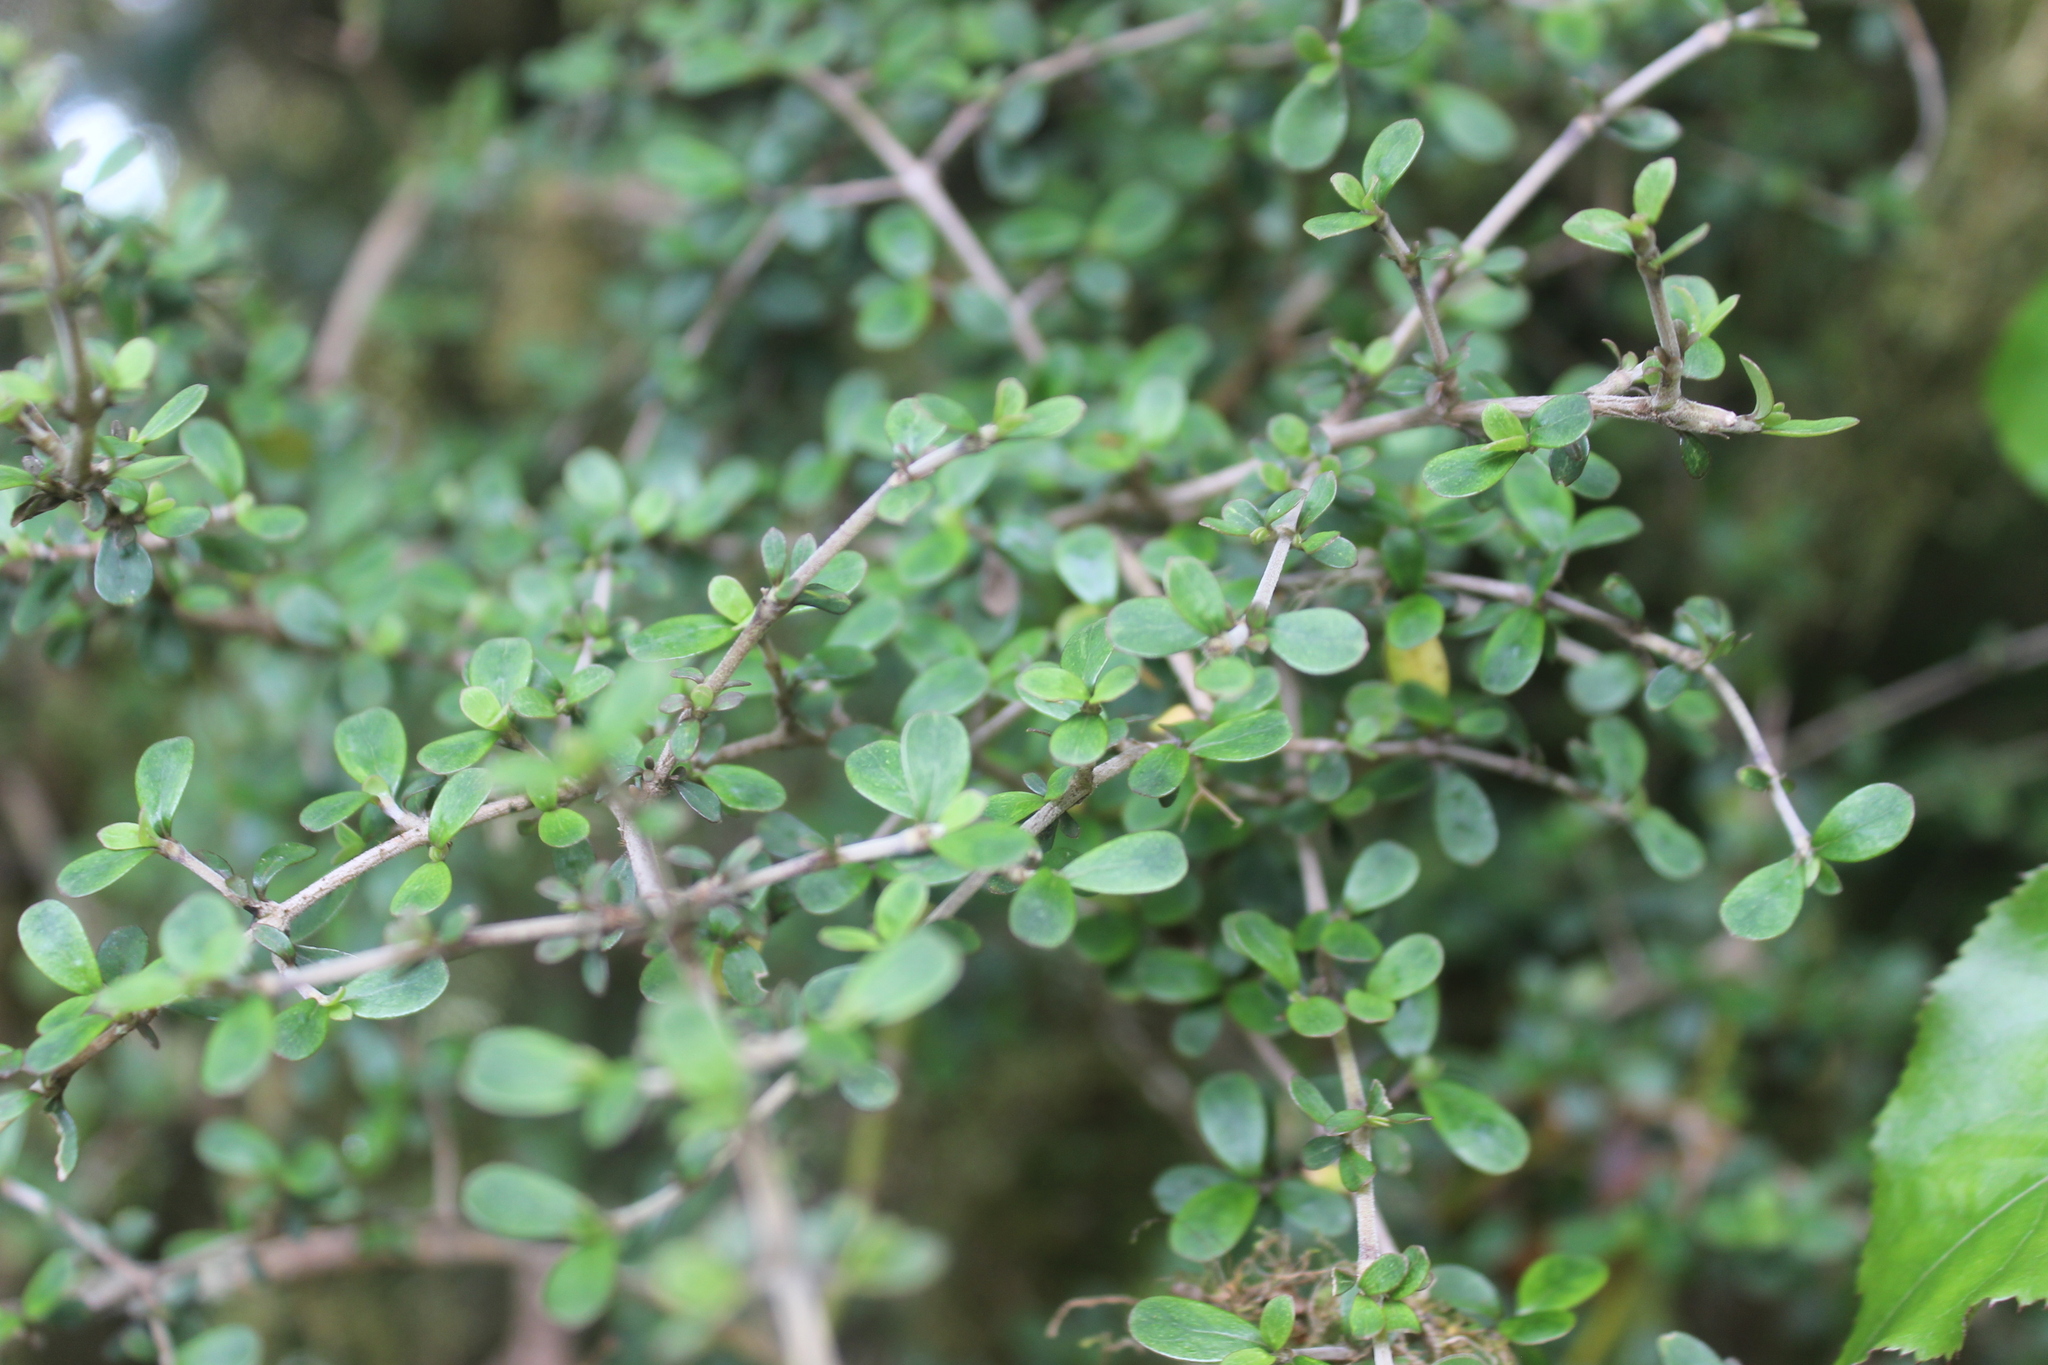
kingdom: Plantae
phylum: Tracheophyta
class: Magnoliopsida
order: Gentianales
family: Rubiaceae
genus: Coprosma
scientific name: Coprosma dumosa
